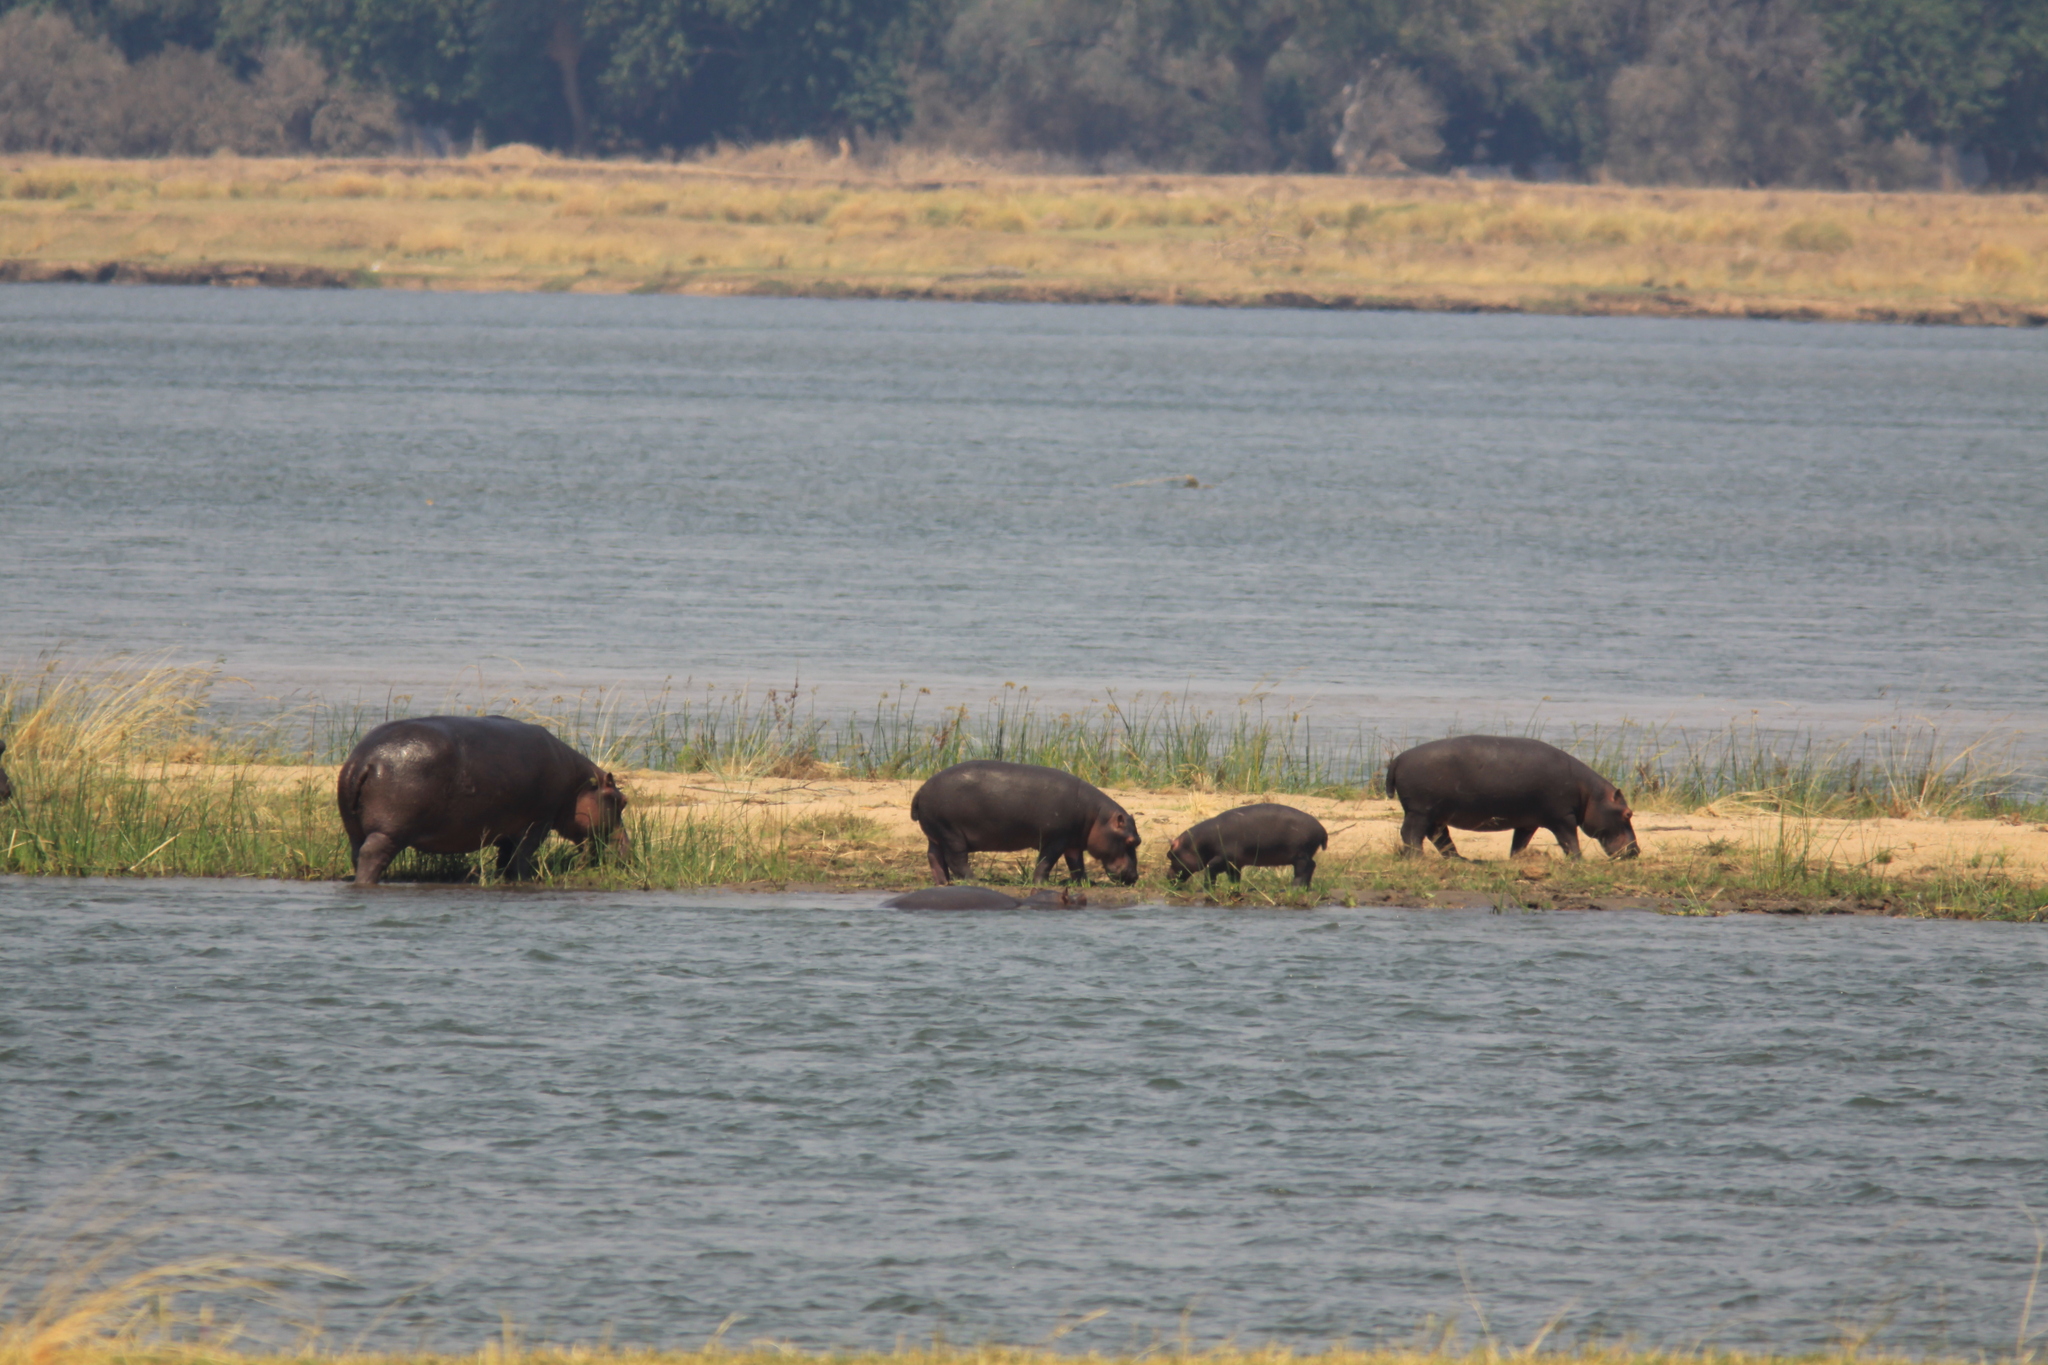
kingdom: Animalia
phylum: Chordata
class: Mammalia
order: Artiodactyla
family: Hippopotamidae
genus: Hippopotamus
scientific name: Hippopotamus amphibius
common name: Common hippopotamus
